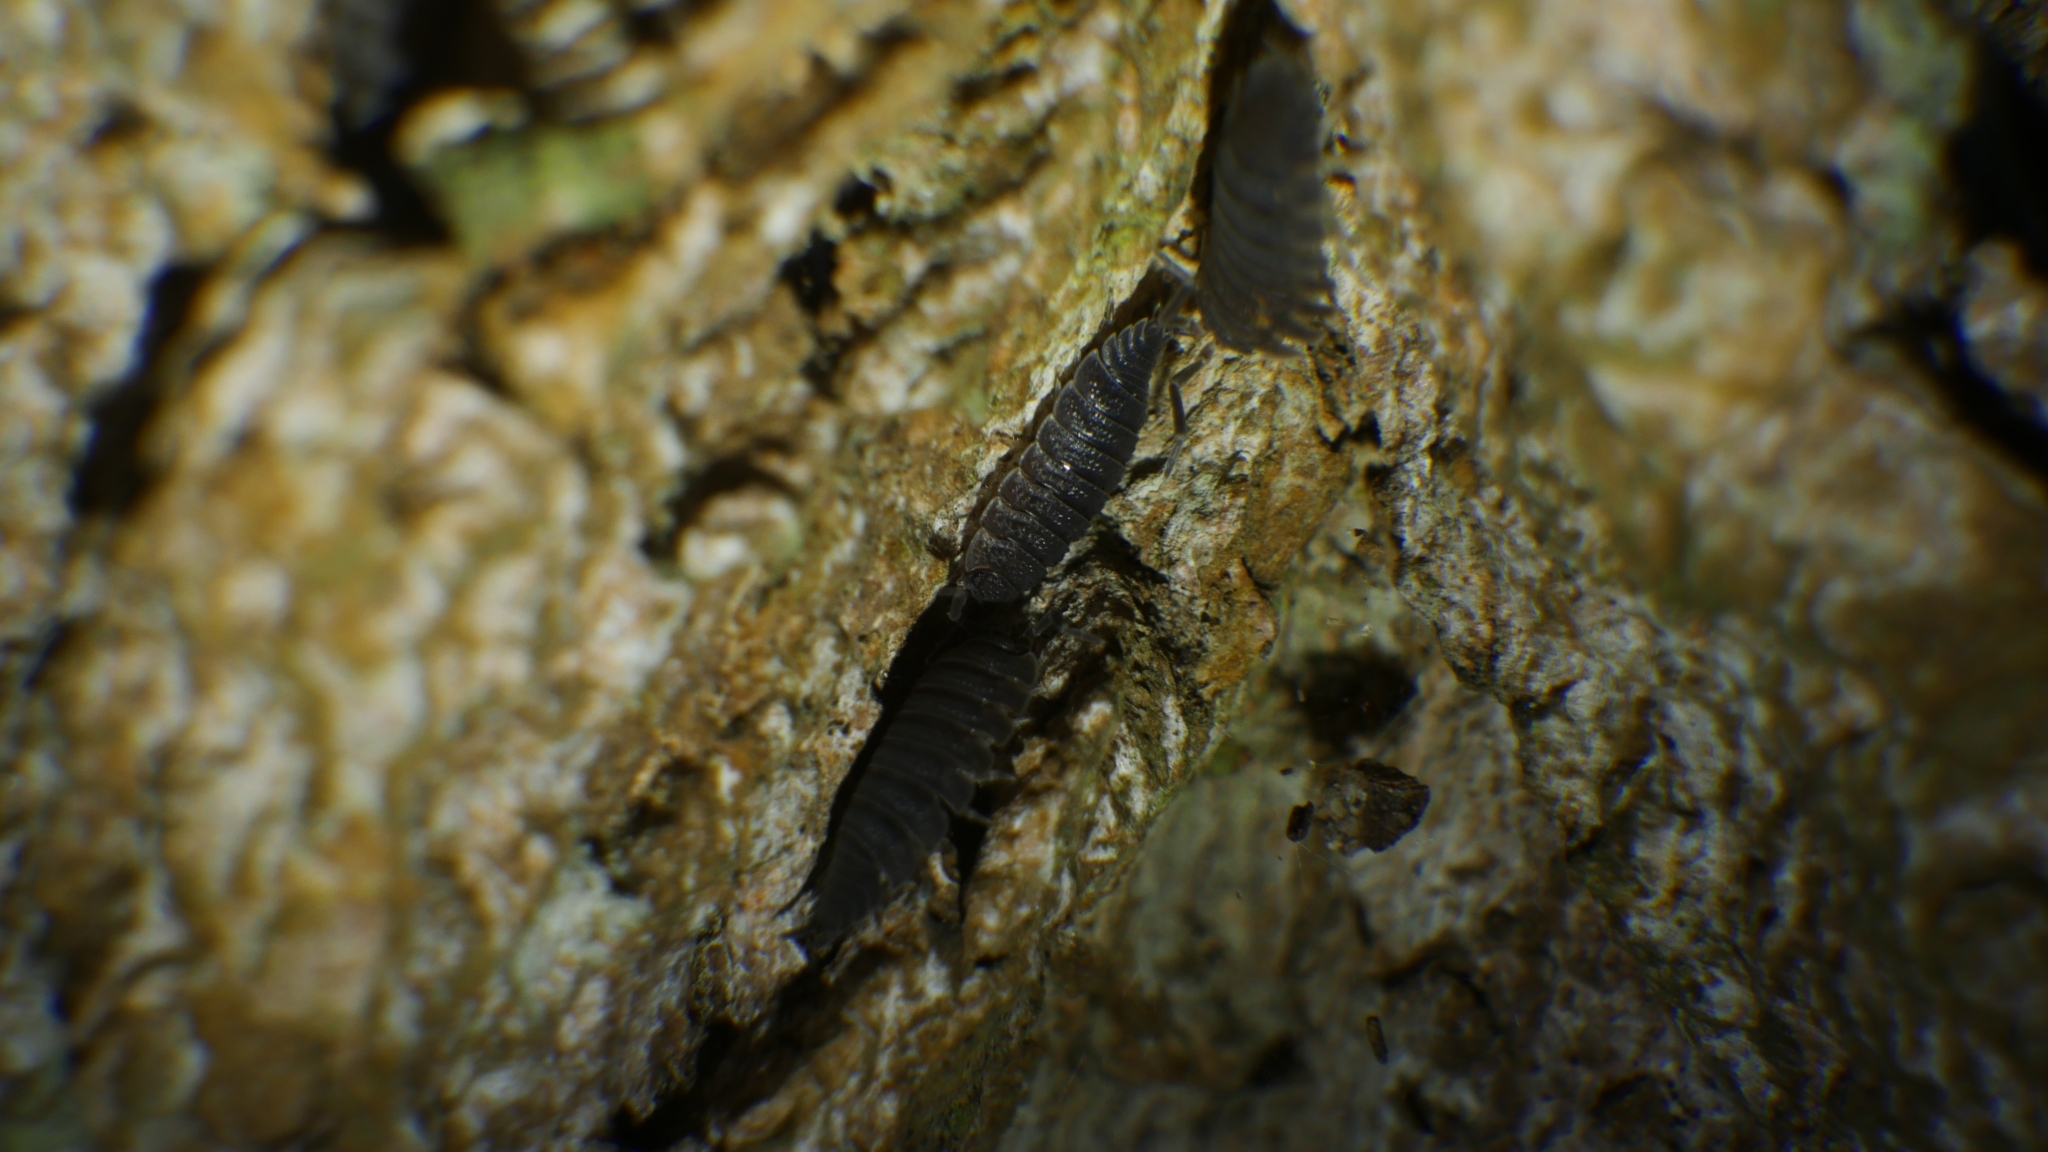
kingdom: Animalia
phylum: Arthropoda
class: Malacostraca
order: Isopoda
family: Porcellionidae
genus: Porcellio
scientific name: Porcellio scaber
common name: Common rough woodlouse
